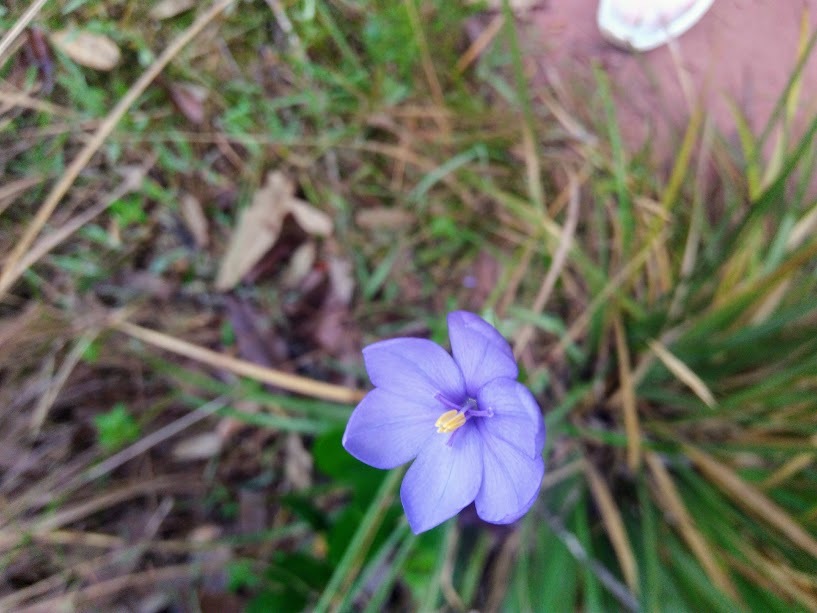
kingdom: Plantae
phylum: Tracheophyta
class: Liliopsida
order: Asparagales
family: Iridaceae
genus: Orthrosanthus
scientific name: Orthrosanthus chimboracensis
